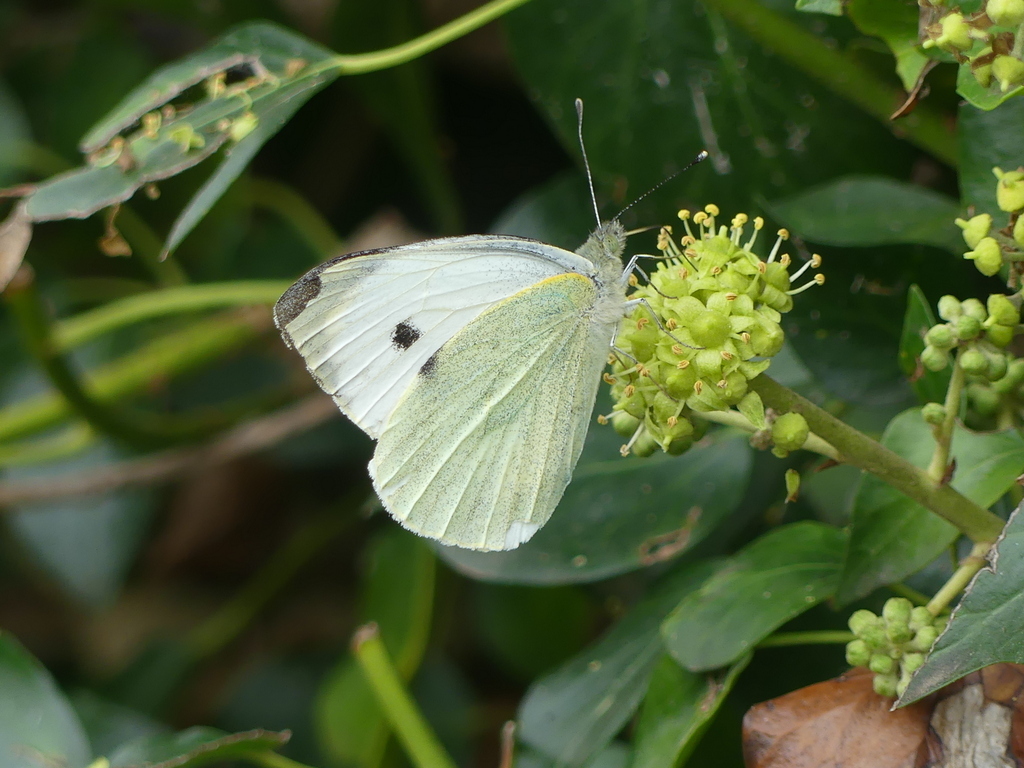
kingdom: Animalia
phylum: Arthropoda
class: Insecta
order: Lepidoptera
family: Pieridae
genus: Pieris
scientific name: Pieris brassicae
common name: Large white
